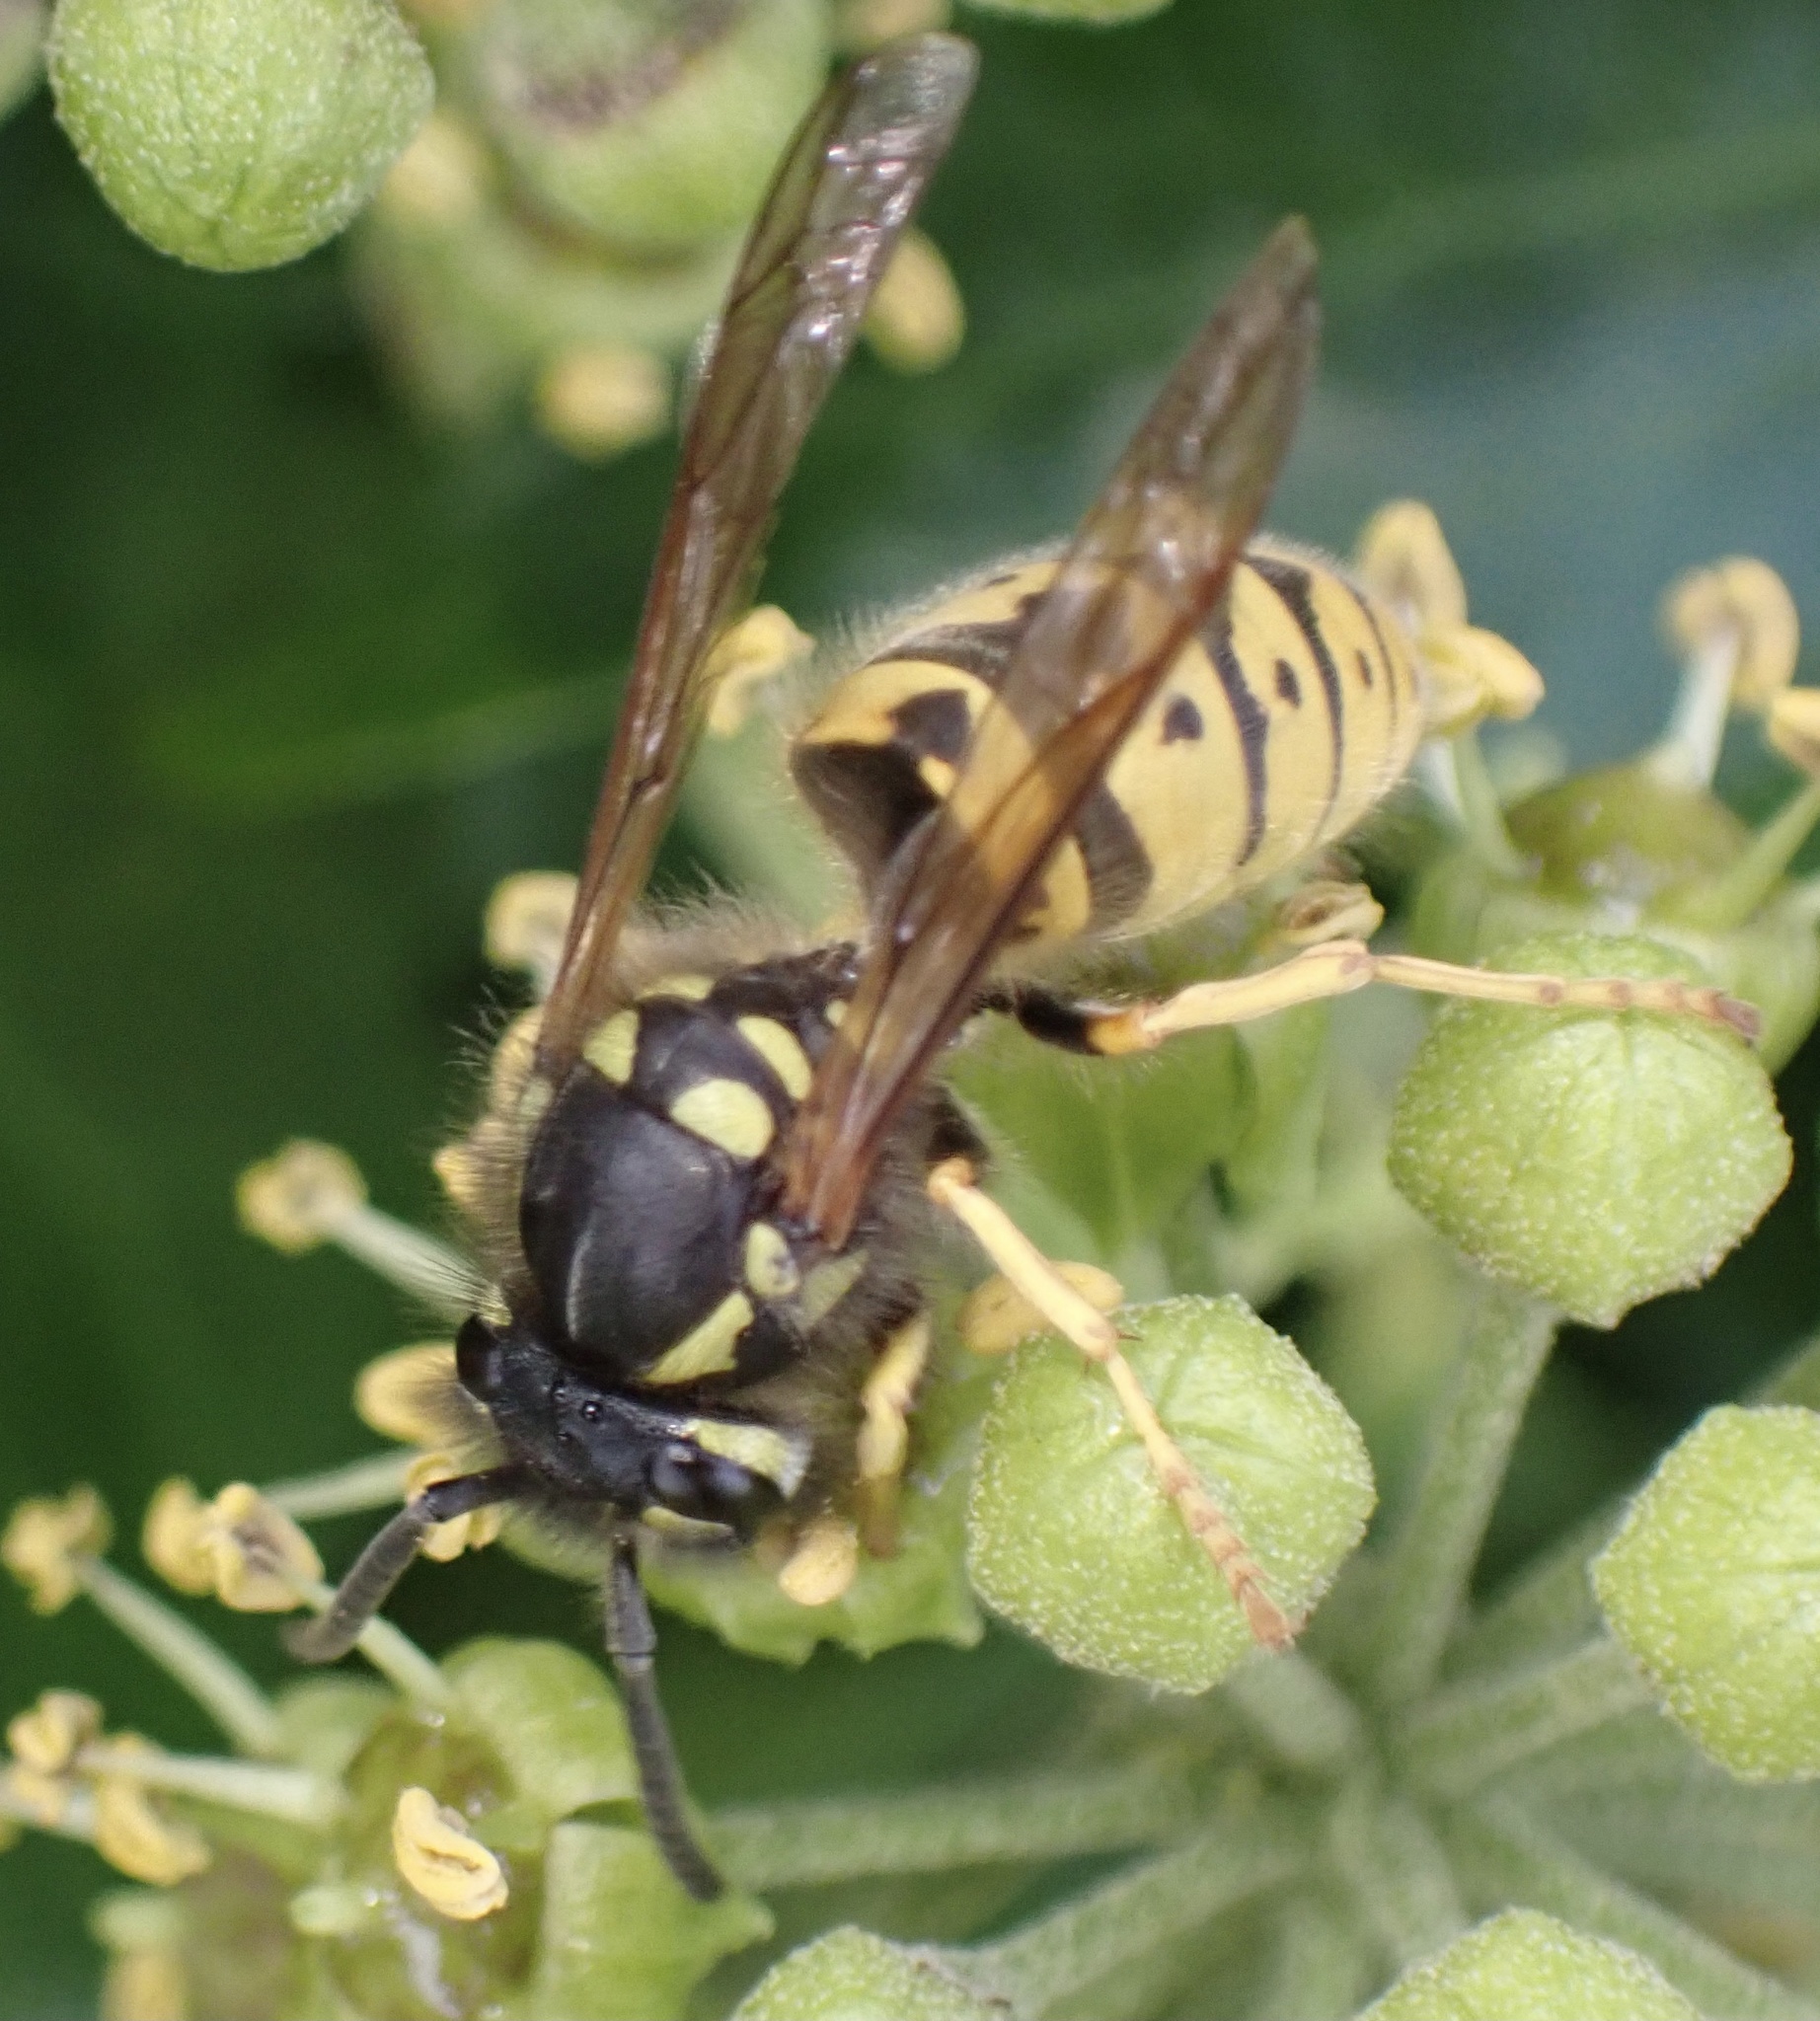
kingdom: Animalia
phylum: Arthropoda
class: Insecta
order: Hymenoptera
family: Vespidae
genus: Vespula
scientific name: Vespula germanica
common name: German wasp
